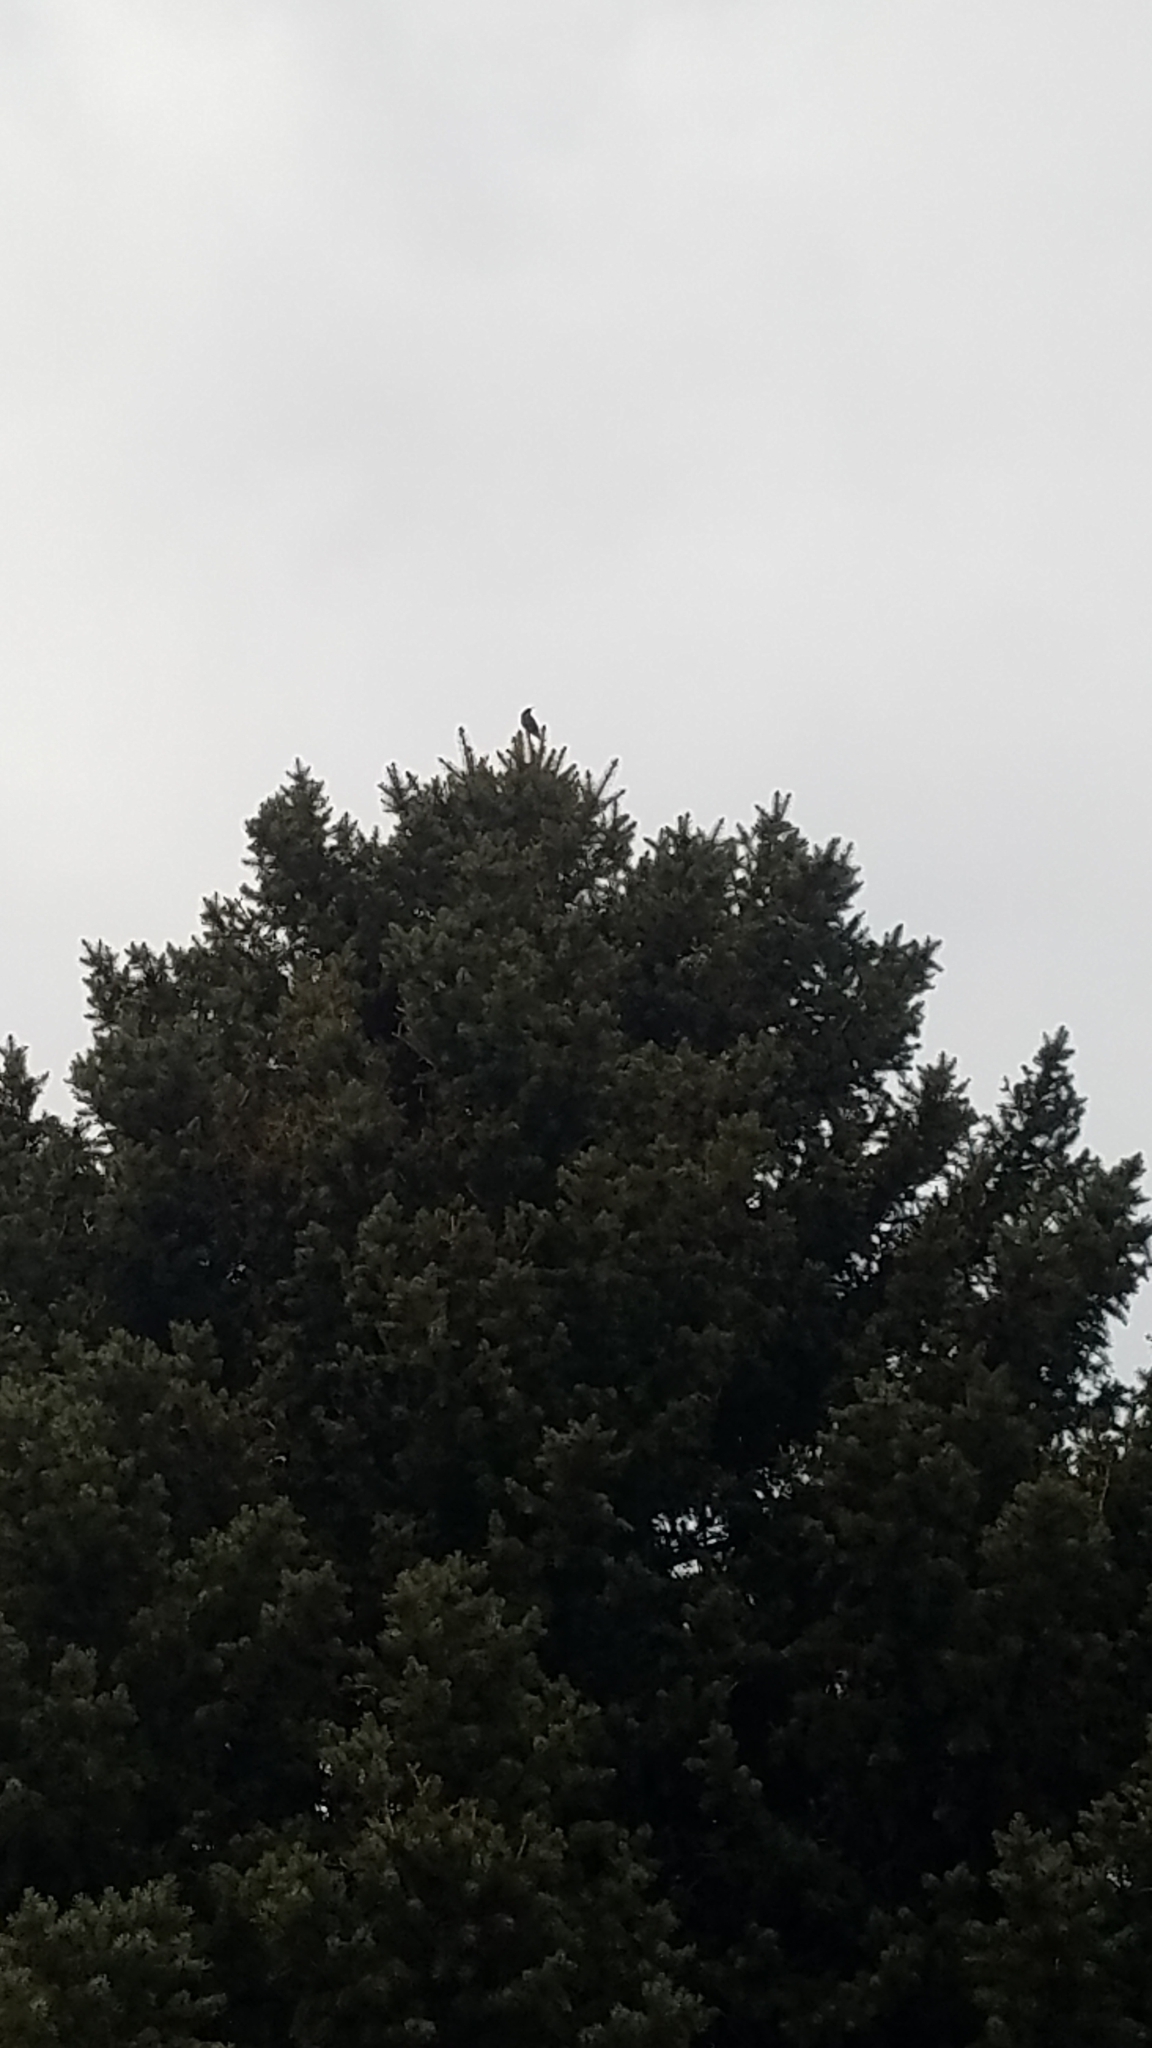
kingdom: Animalia
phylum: Chordata
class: Aves
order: Passeriformes
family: Sturnidae
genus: Sturnus
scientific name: Sturnus vulgaris
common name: Common starling
